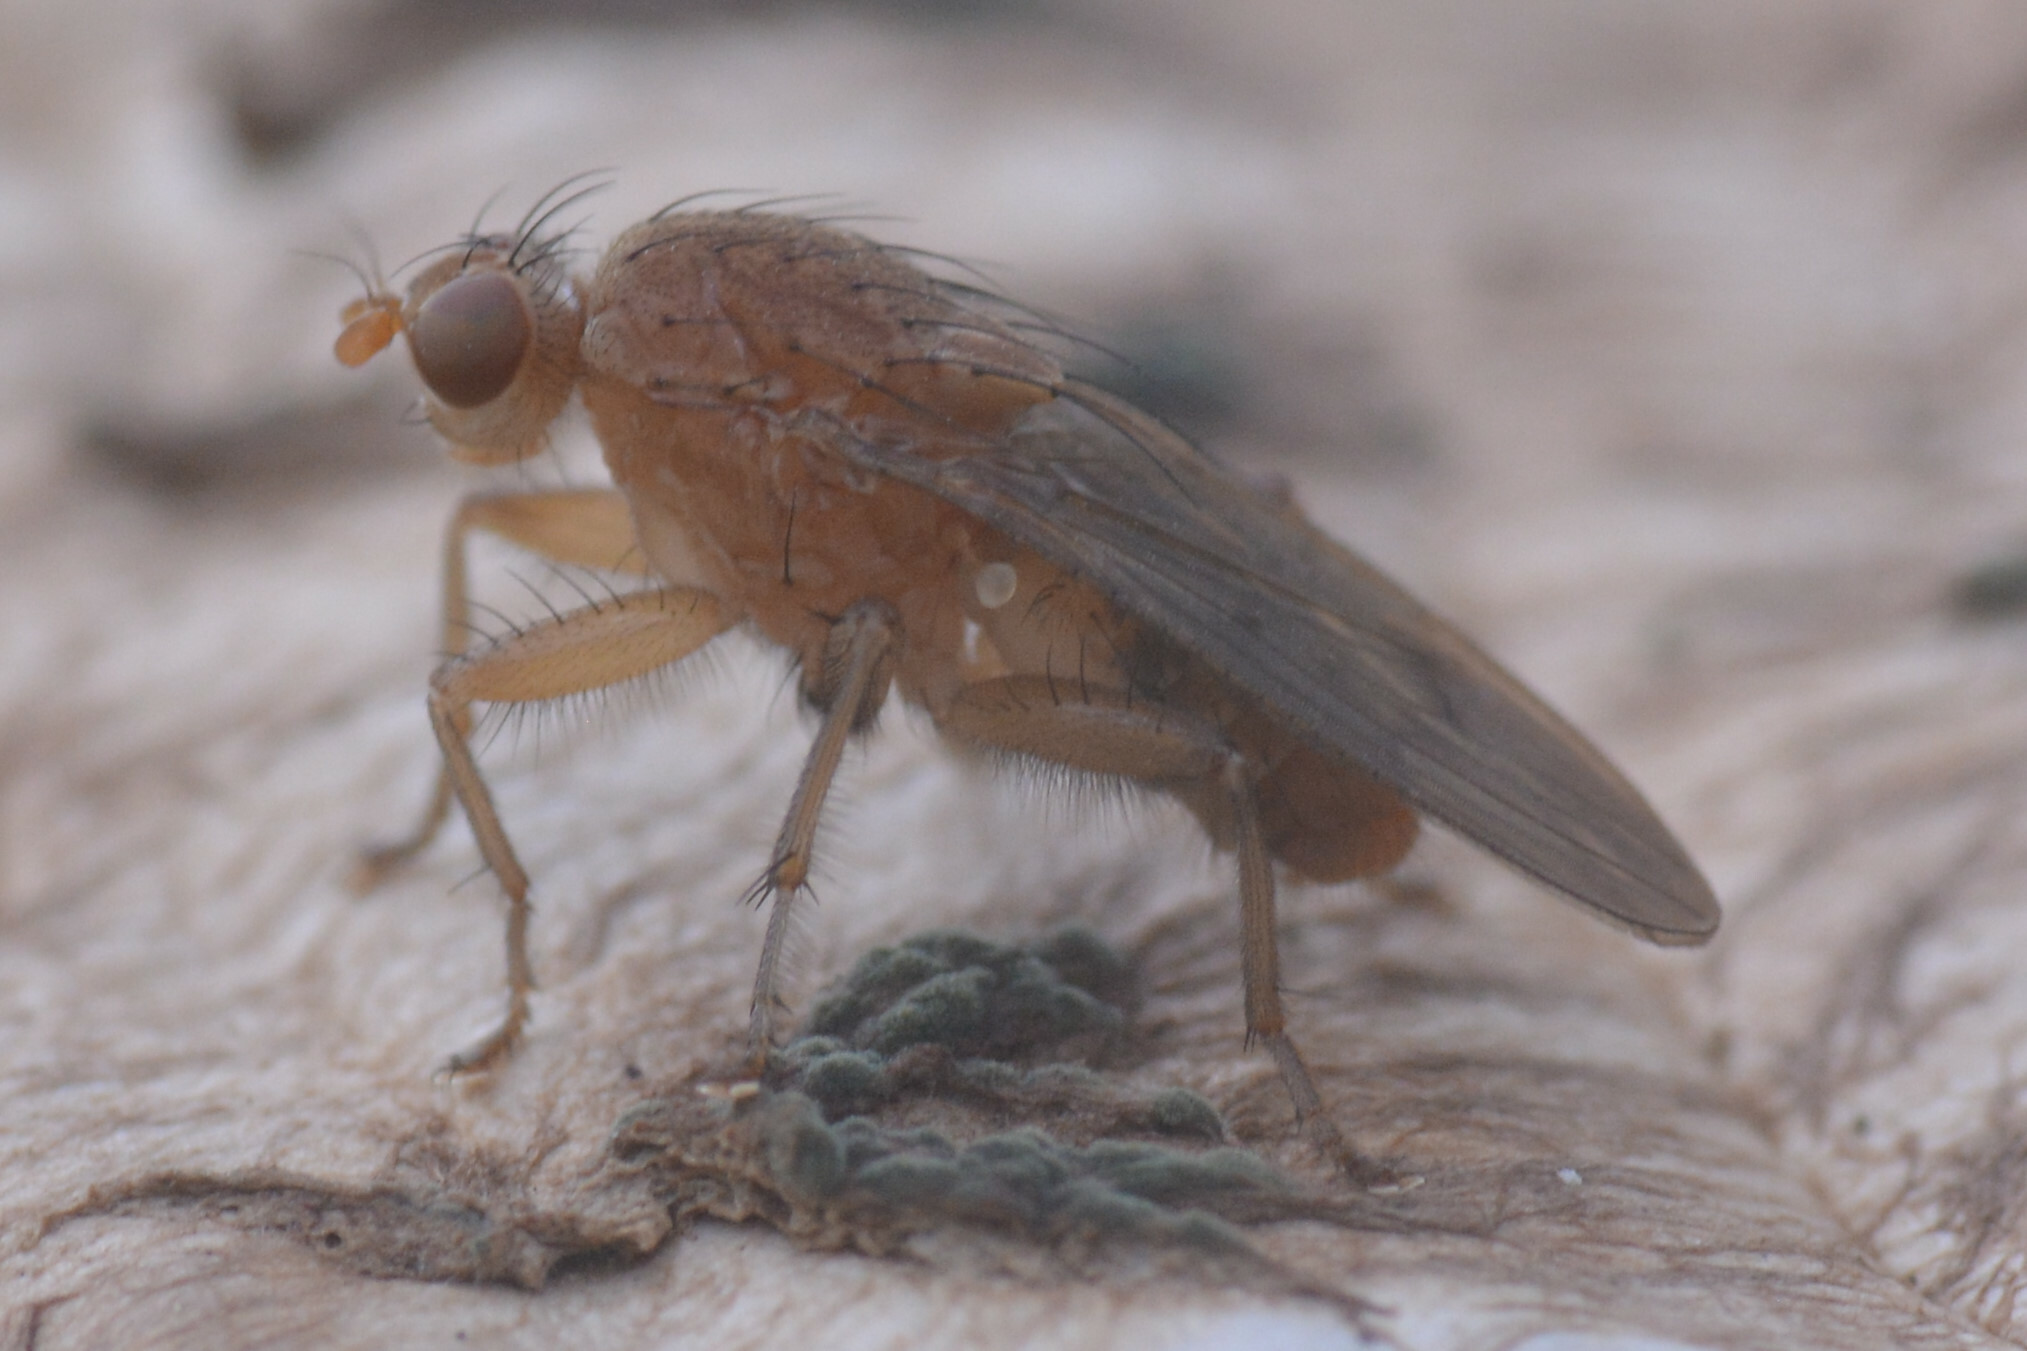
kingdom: Animalia
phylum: Arthropoda
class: Insecta
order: Diptera
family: Heleomyzidae
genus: Suillia
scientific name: Suillia notata
